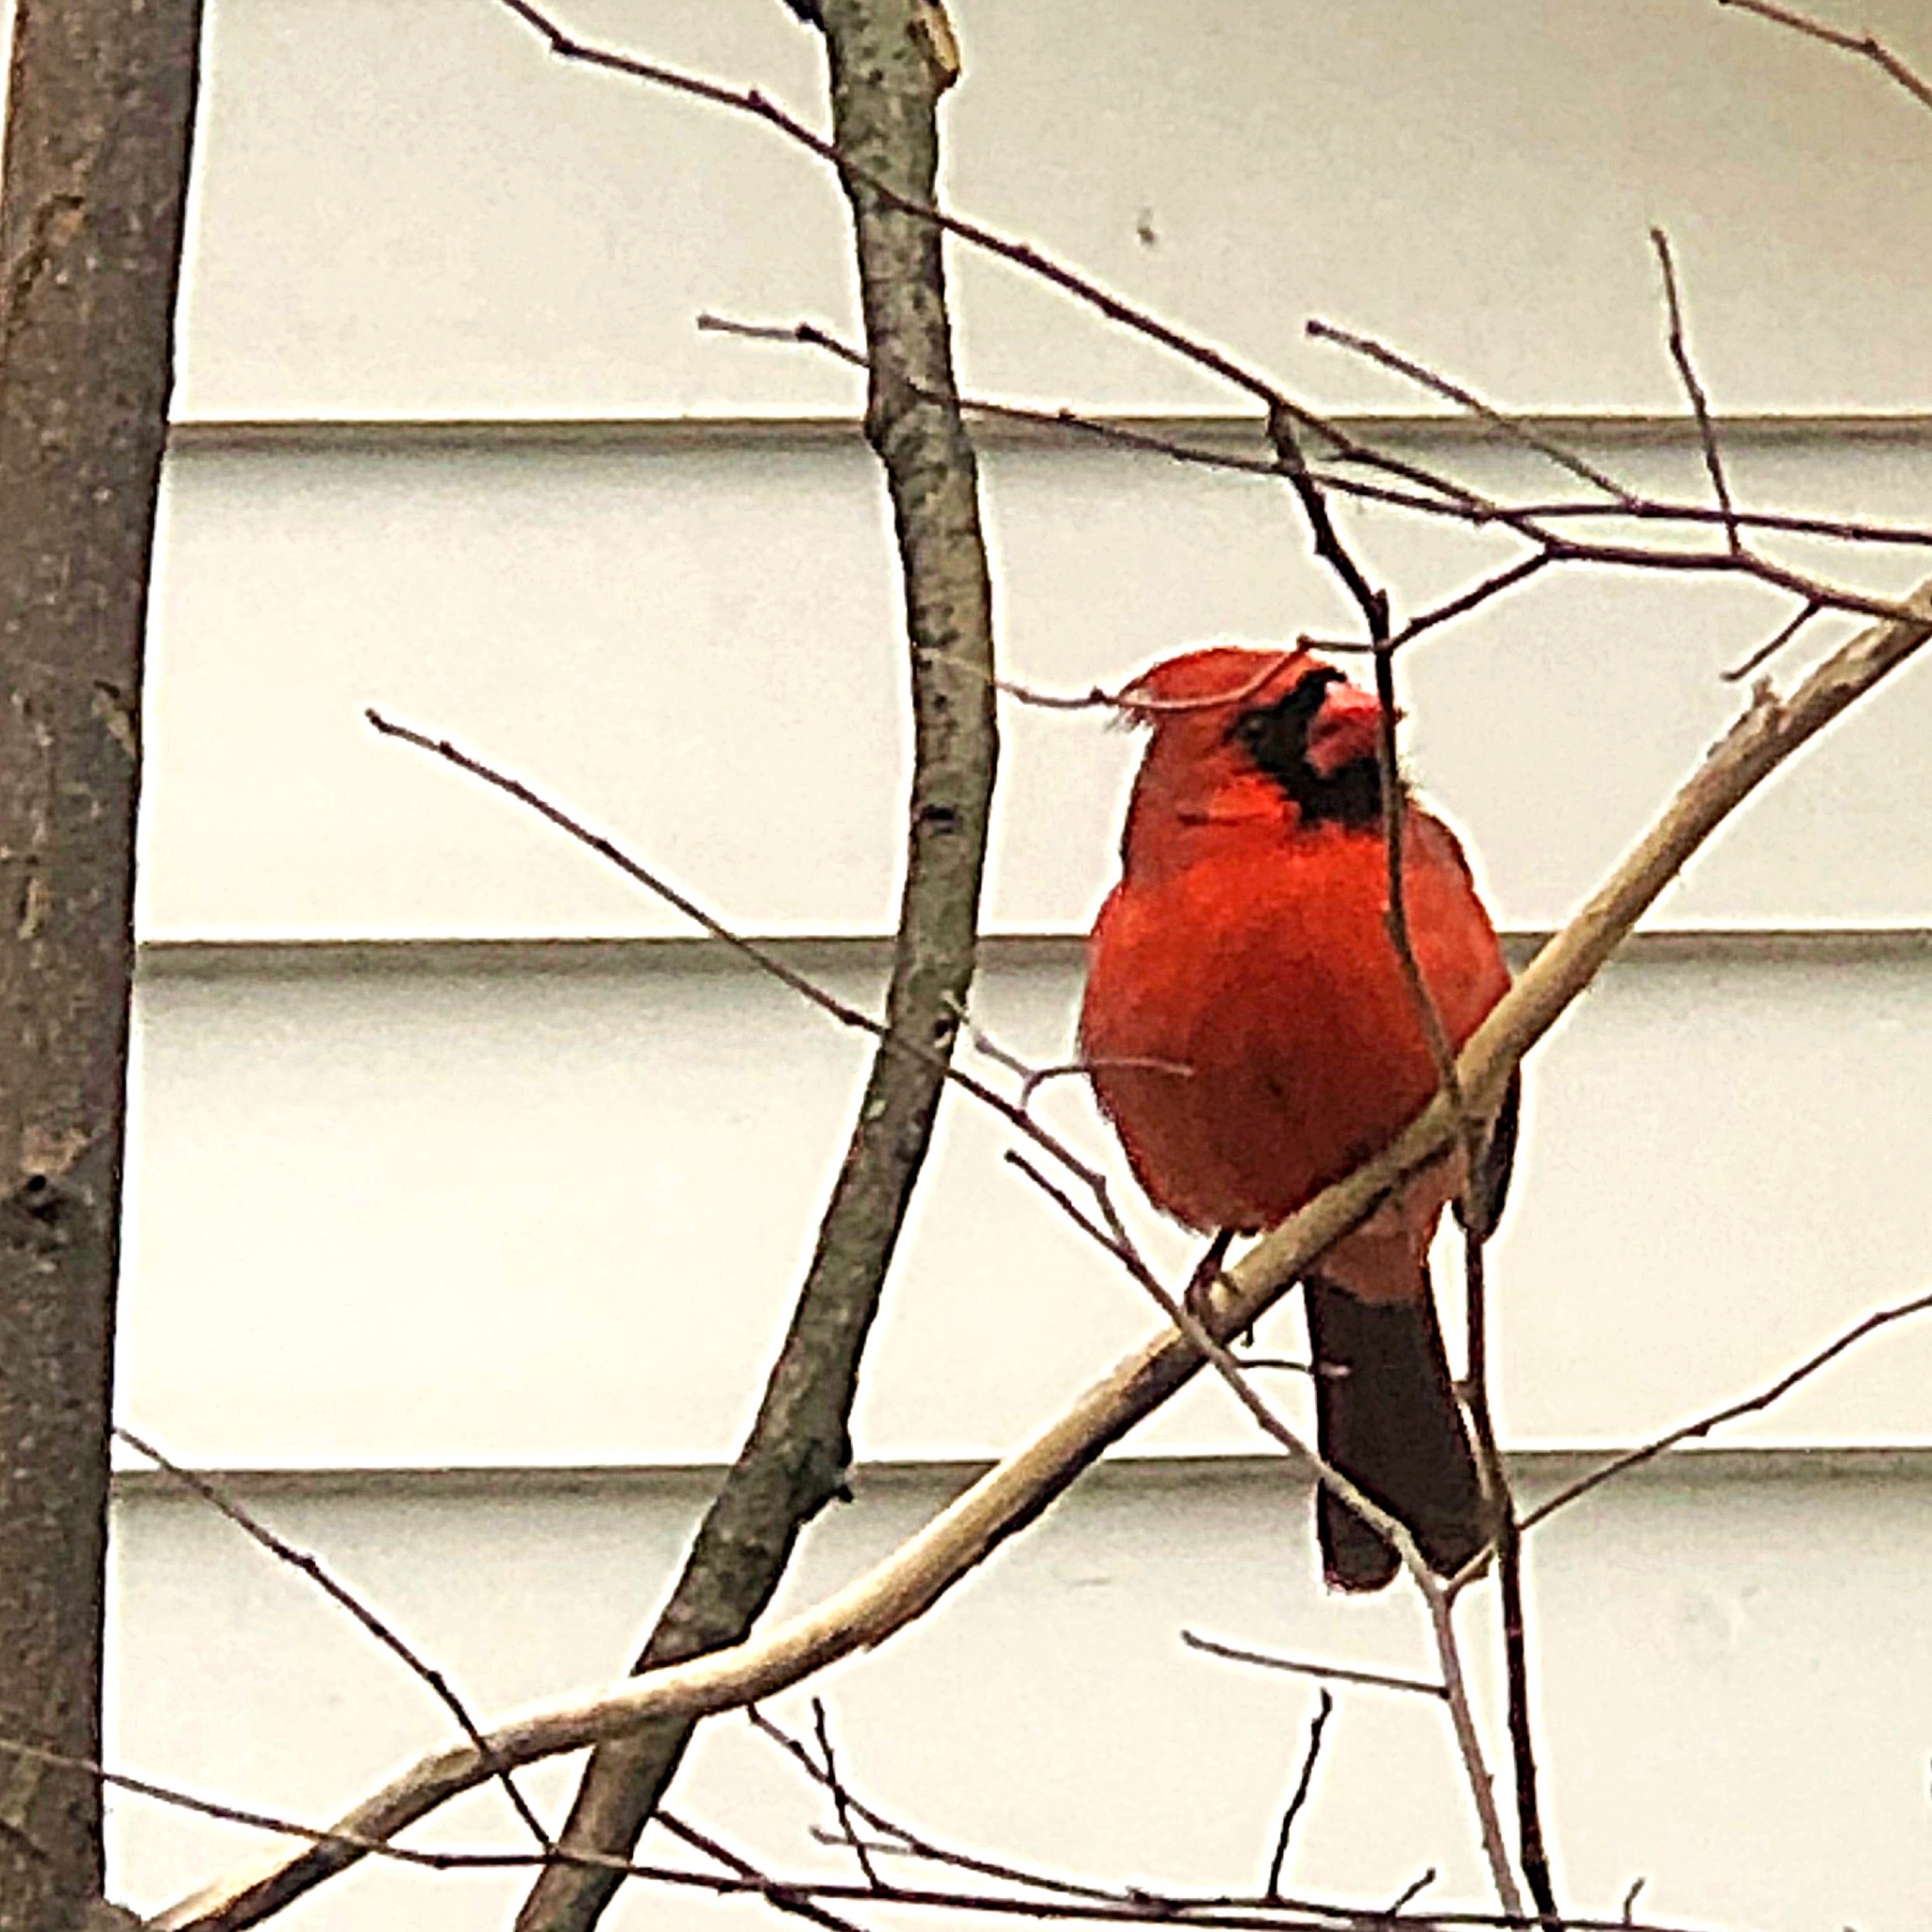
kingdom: Animalia
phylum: Chordata
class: Aves
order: Passeriformes
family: Cardinalidae
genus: Cardinalis
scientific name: Cardinalis cardinalis
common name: Northern cardinal
